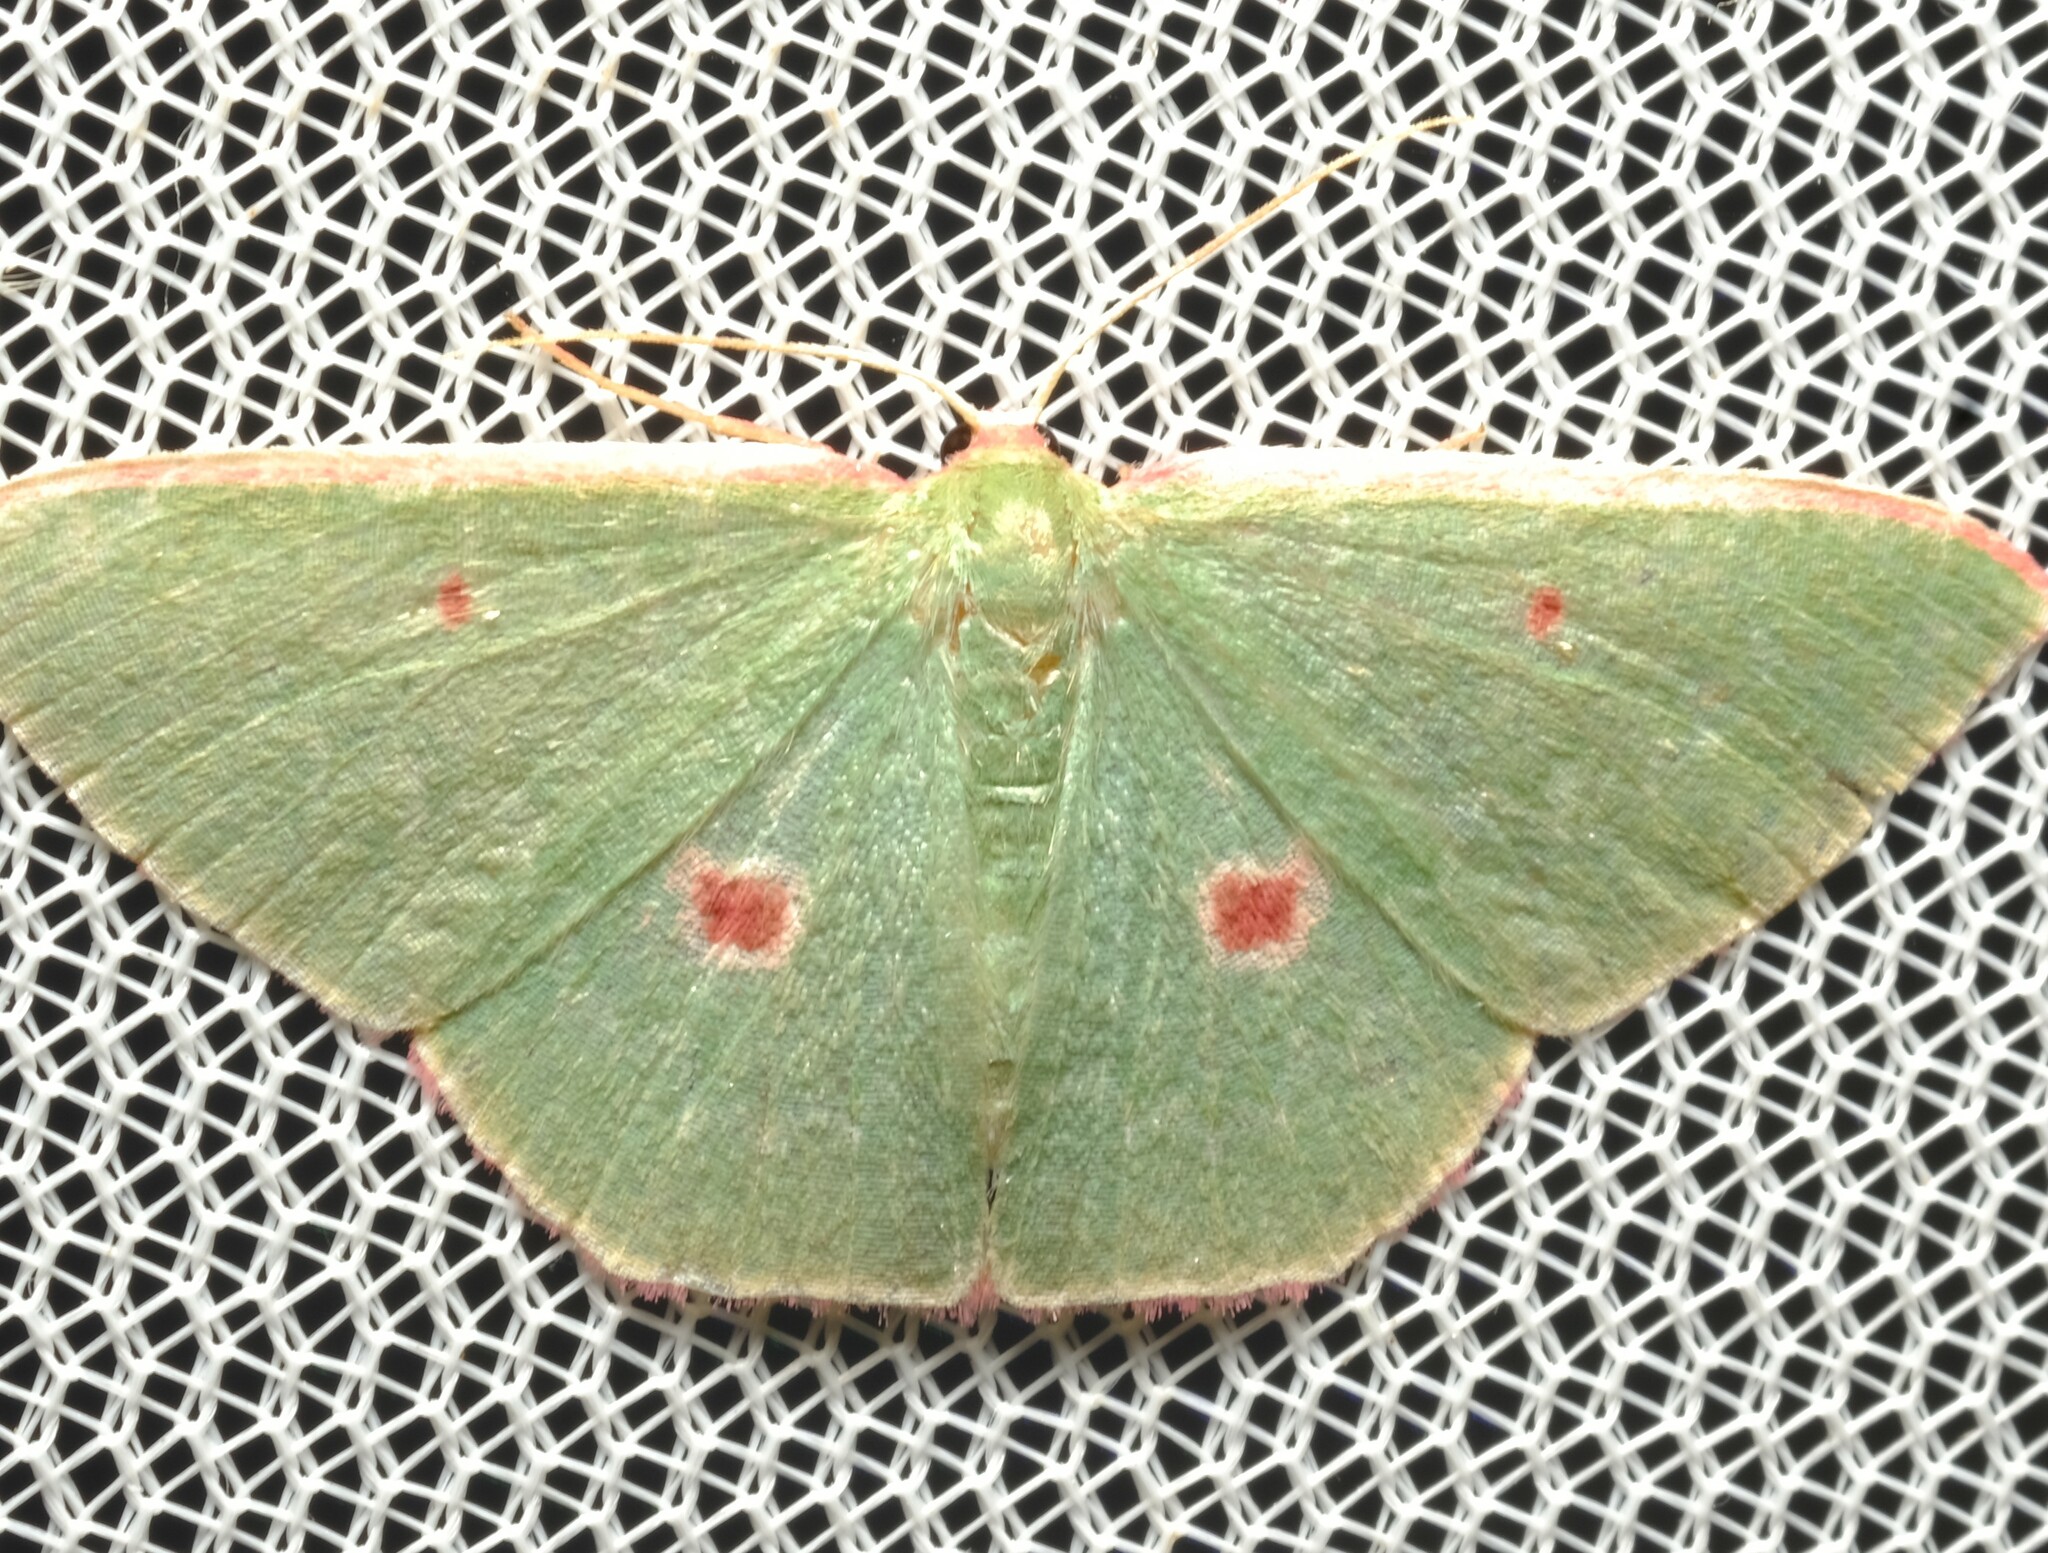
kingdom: Animalia
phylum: Arthropoda
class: Insecta
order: Lepidoptera
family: Geometridae
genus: Chlorocoma
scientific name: Chlorocoma cadmaria
